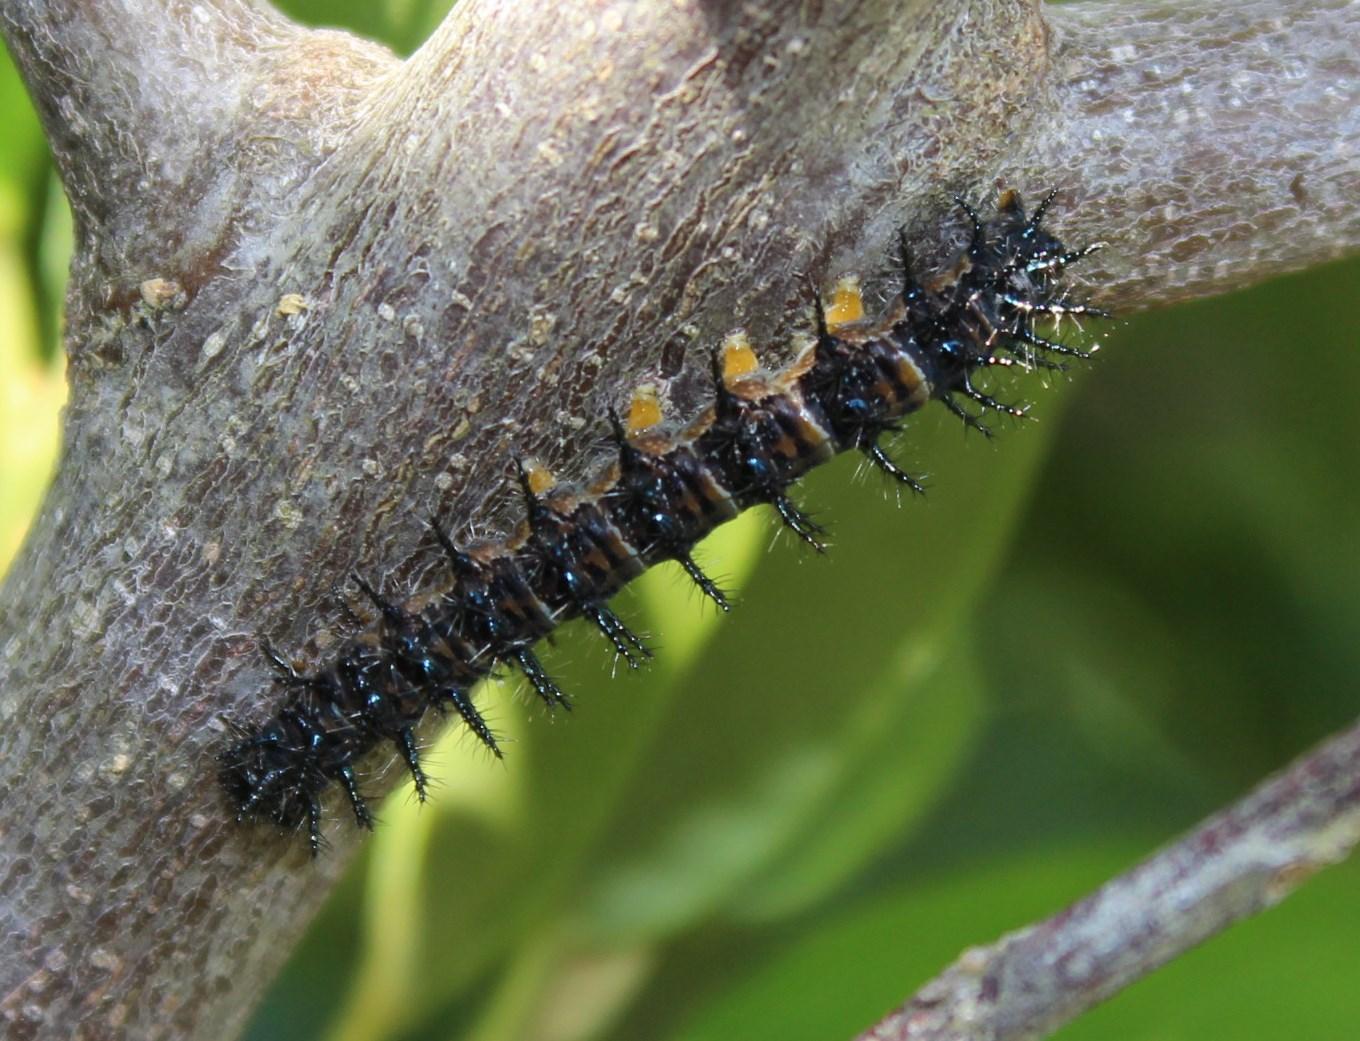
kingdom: Animalia
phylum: Arthropoda
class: Insecta
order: Lepidoptera
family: Nymphalidae
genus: Acraea
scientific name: Acraea horta
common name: Garden acraea
